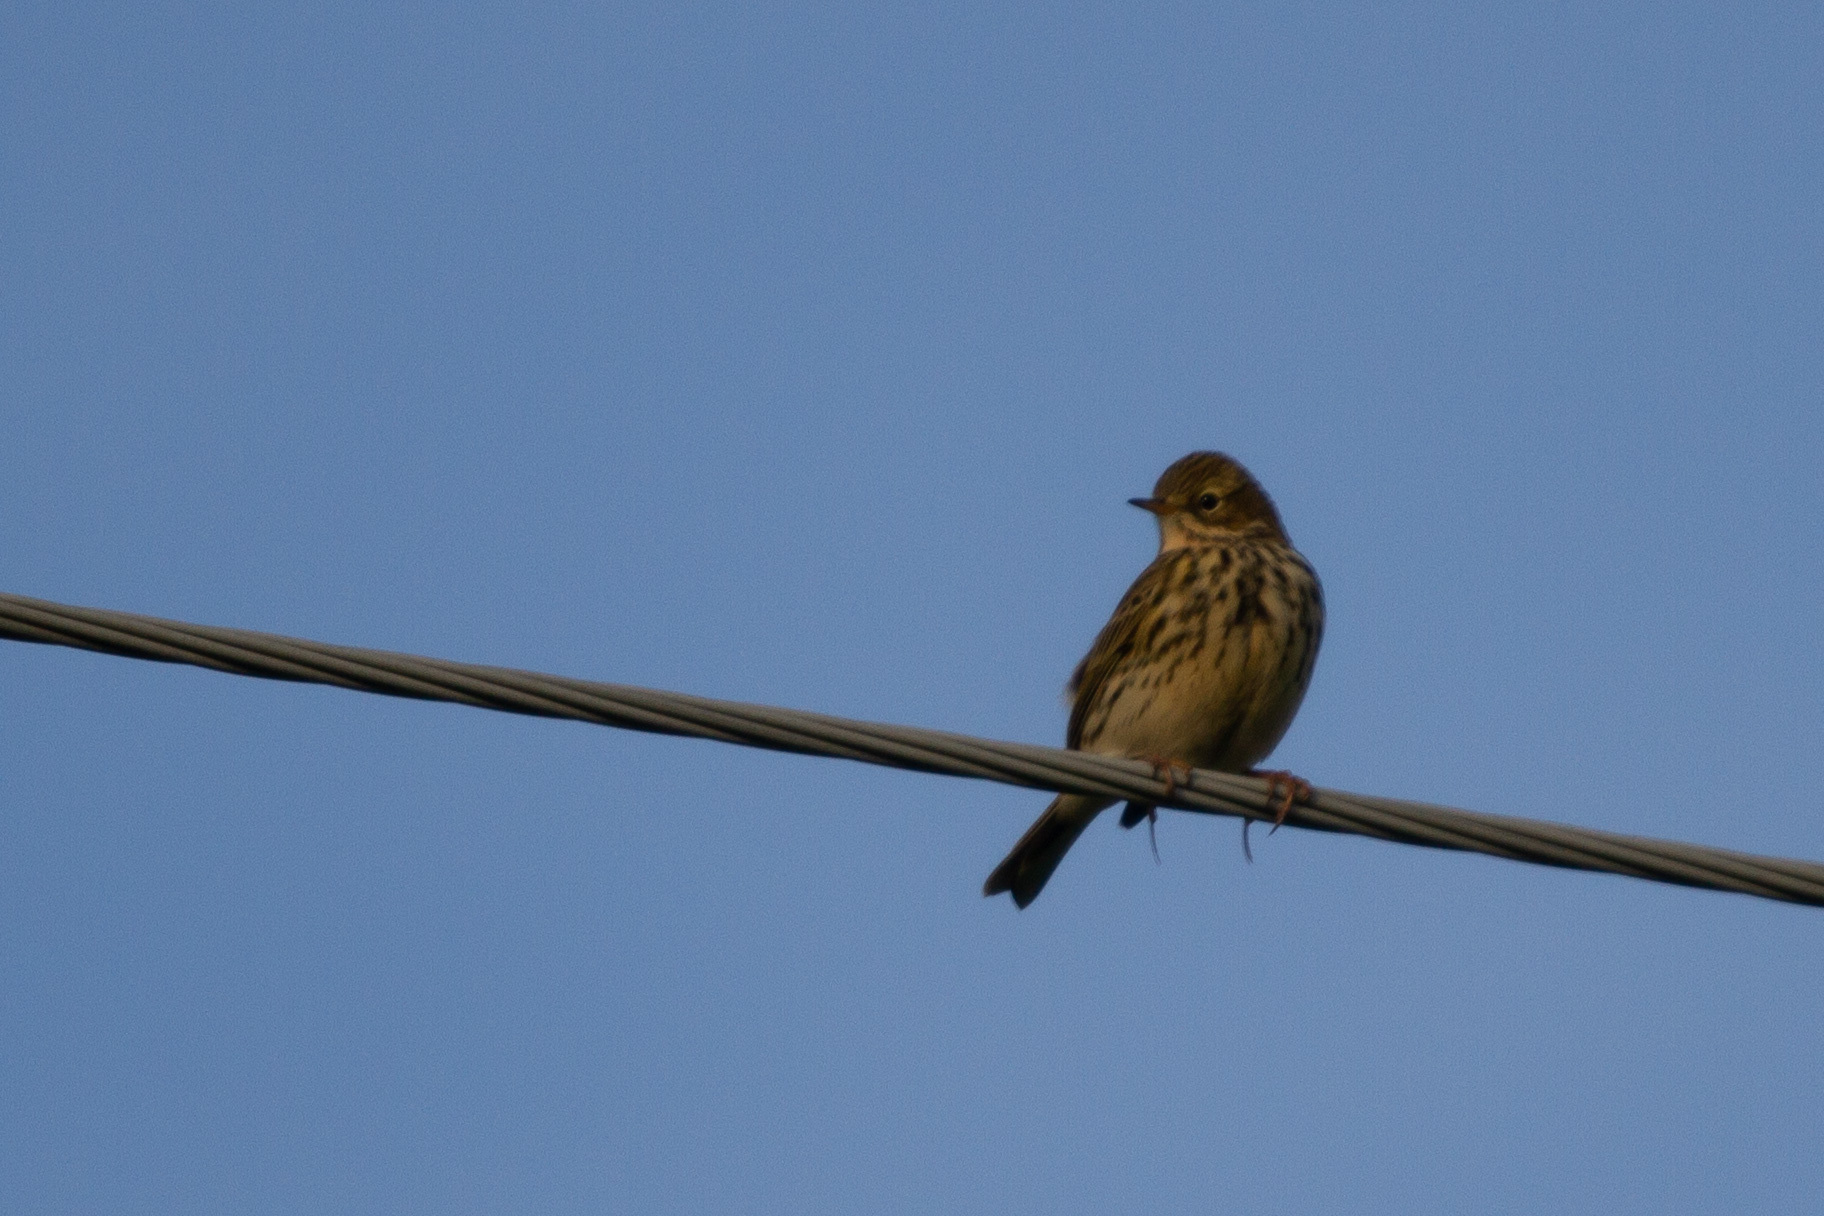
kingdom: Animalia
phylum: Chordata
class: Aves
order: Passeriformes
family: Motacillidae
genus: Anthus
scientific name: Anthus pratensis
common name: Meadow pipit
